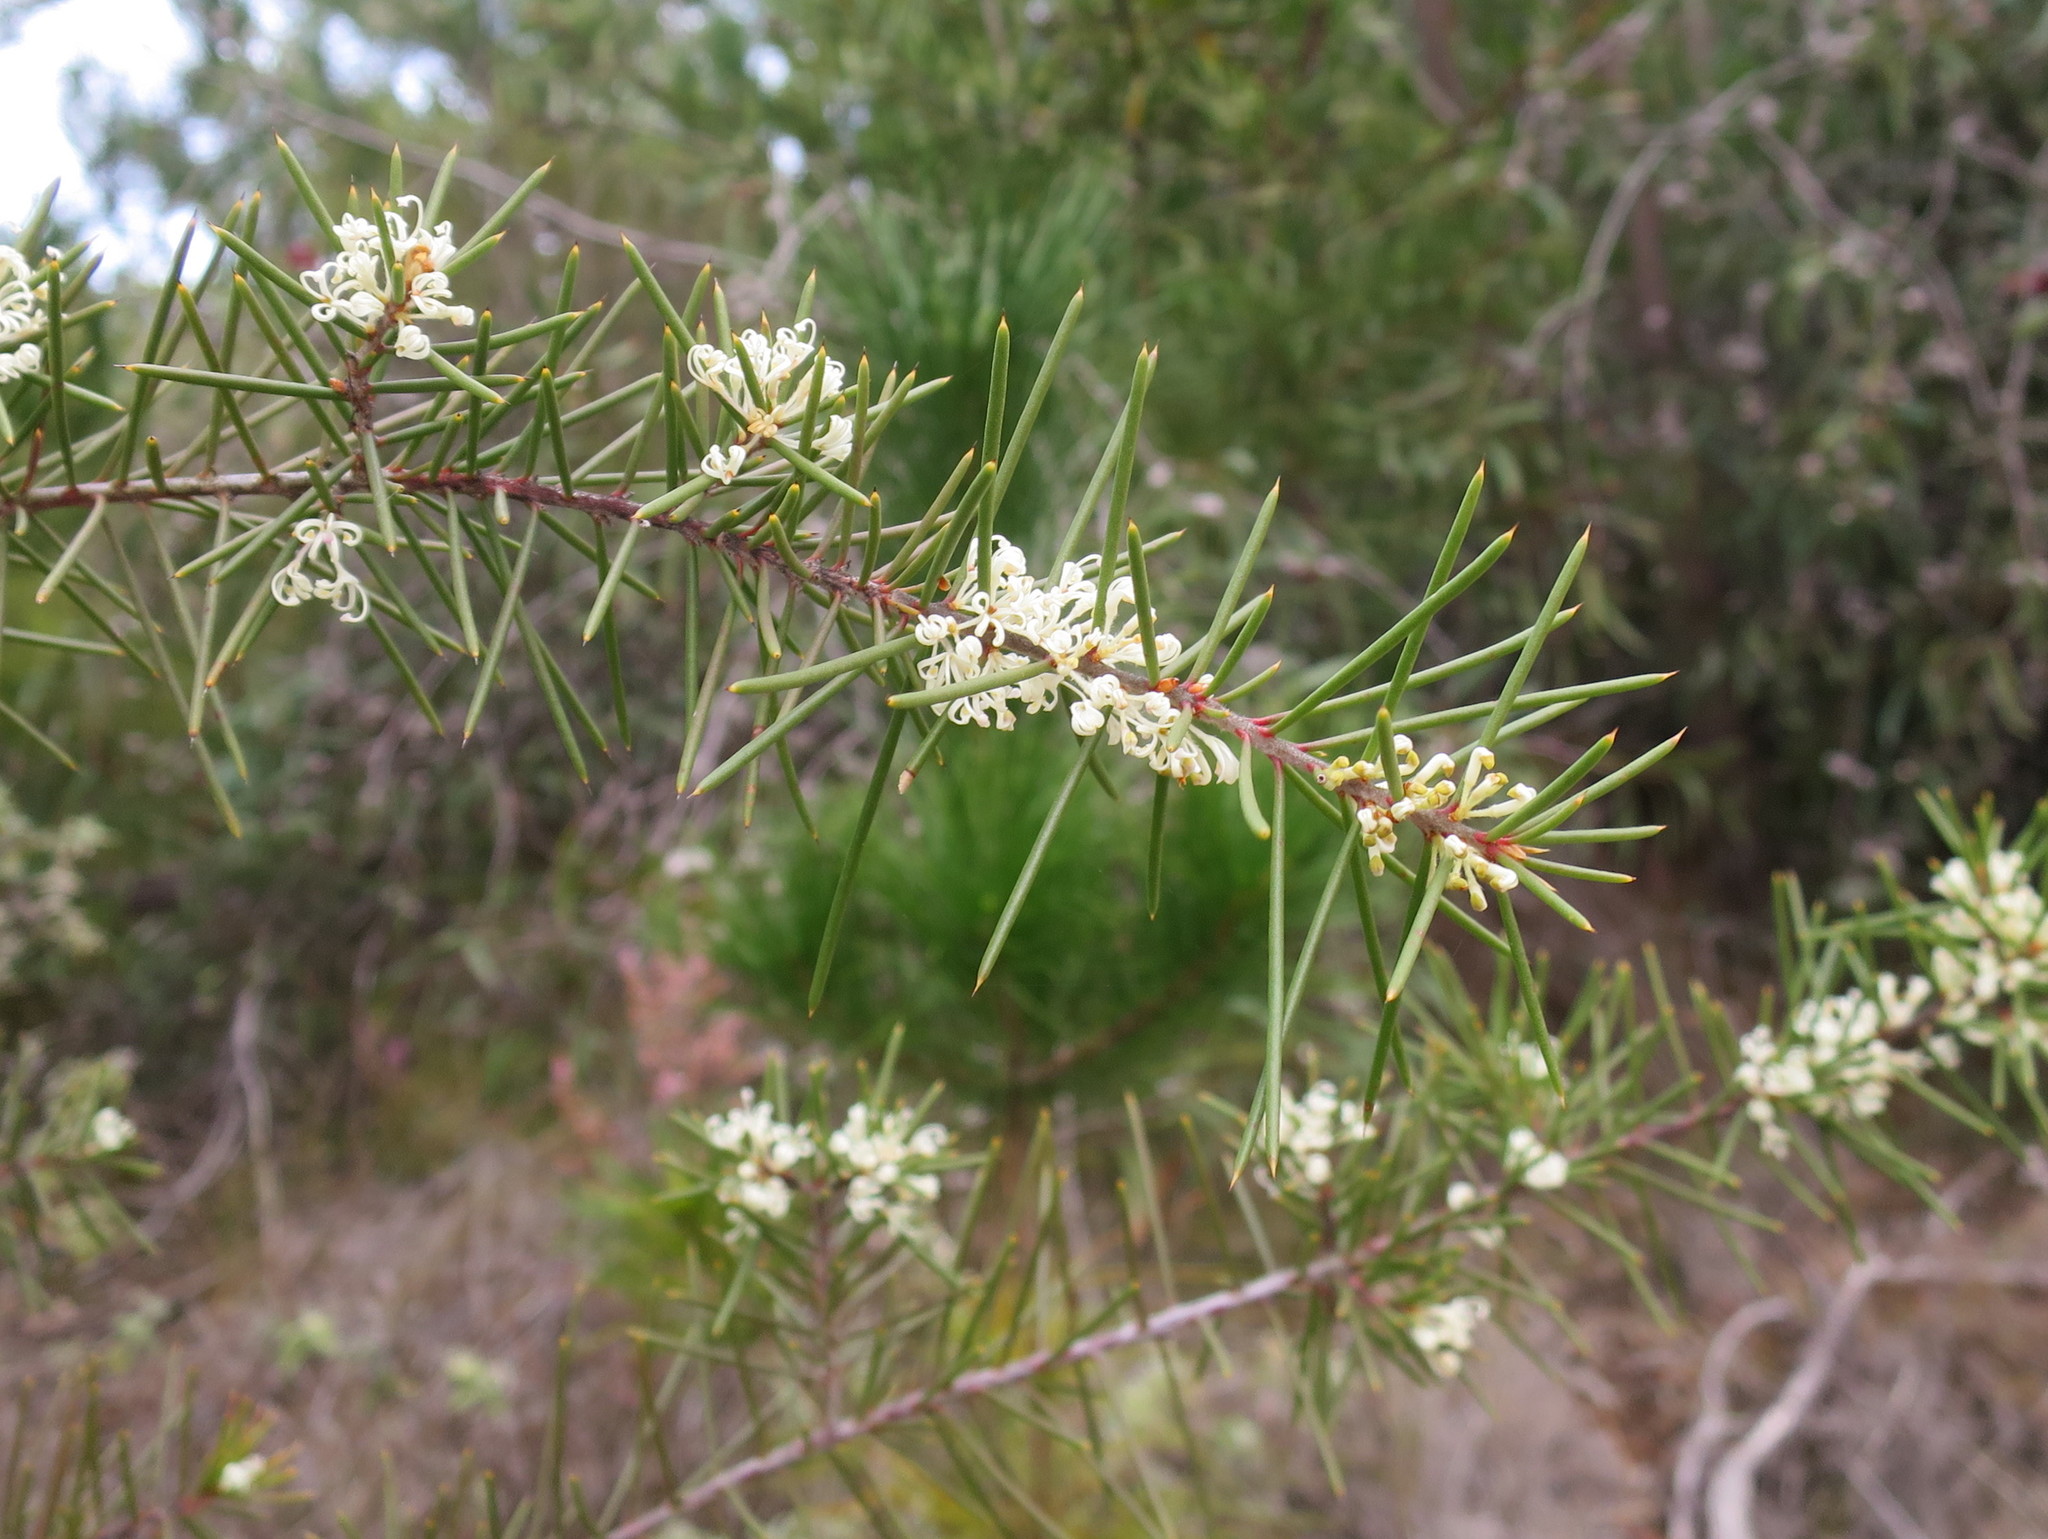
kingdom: Plantae
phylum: Tracheophyta
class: Magnoliopsida
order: Proteales
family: Proteaceae
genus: Hakea
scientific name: Hakea sericea
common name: Needle bush
